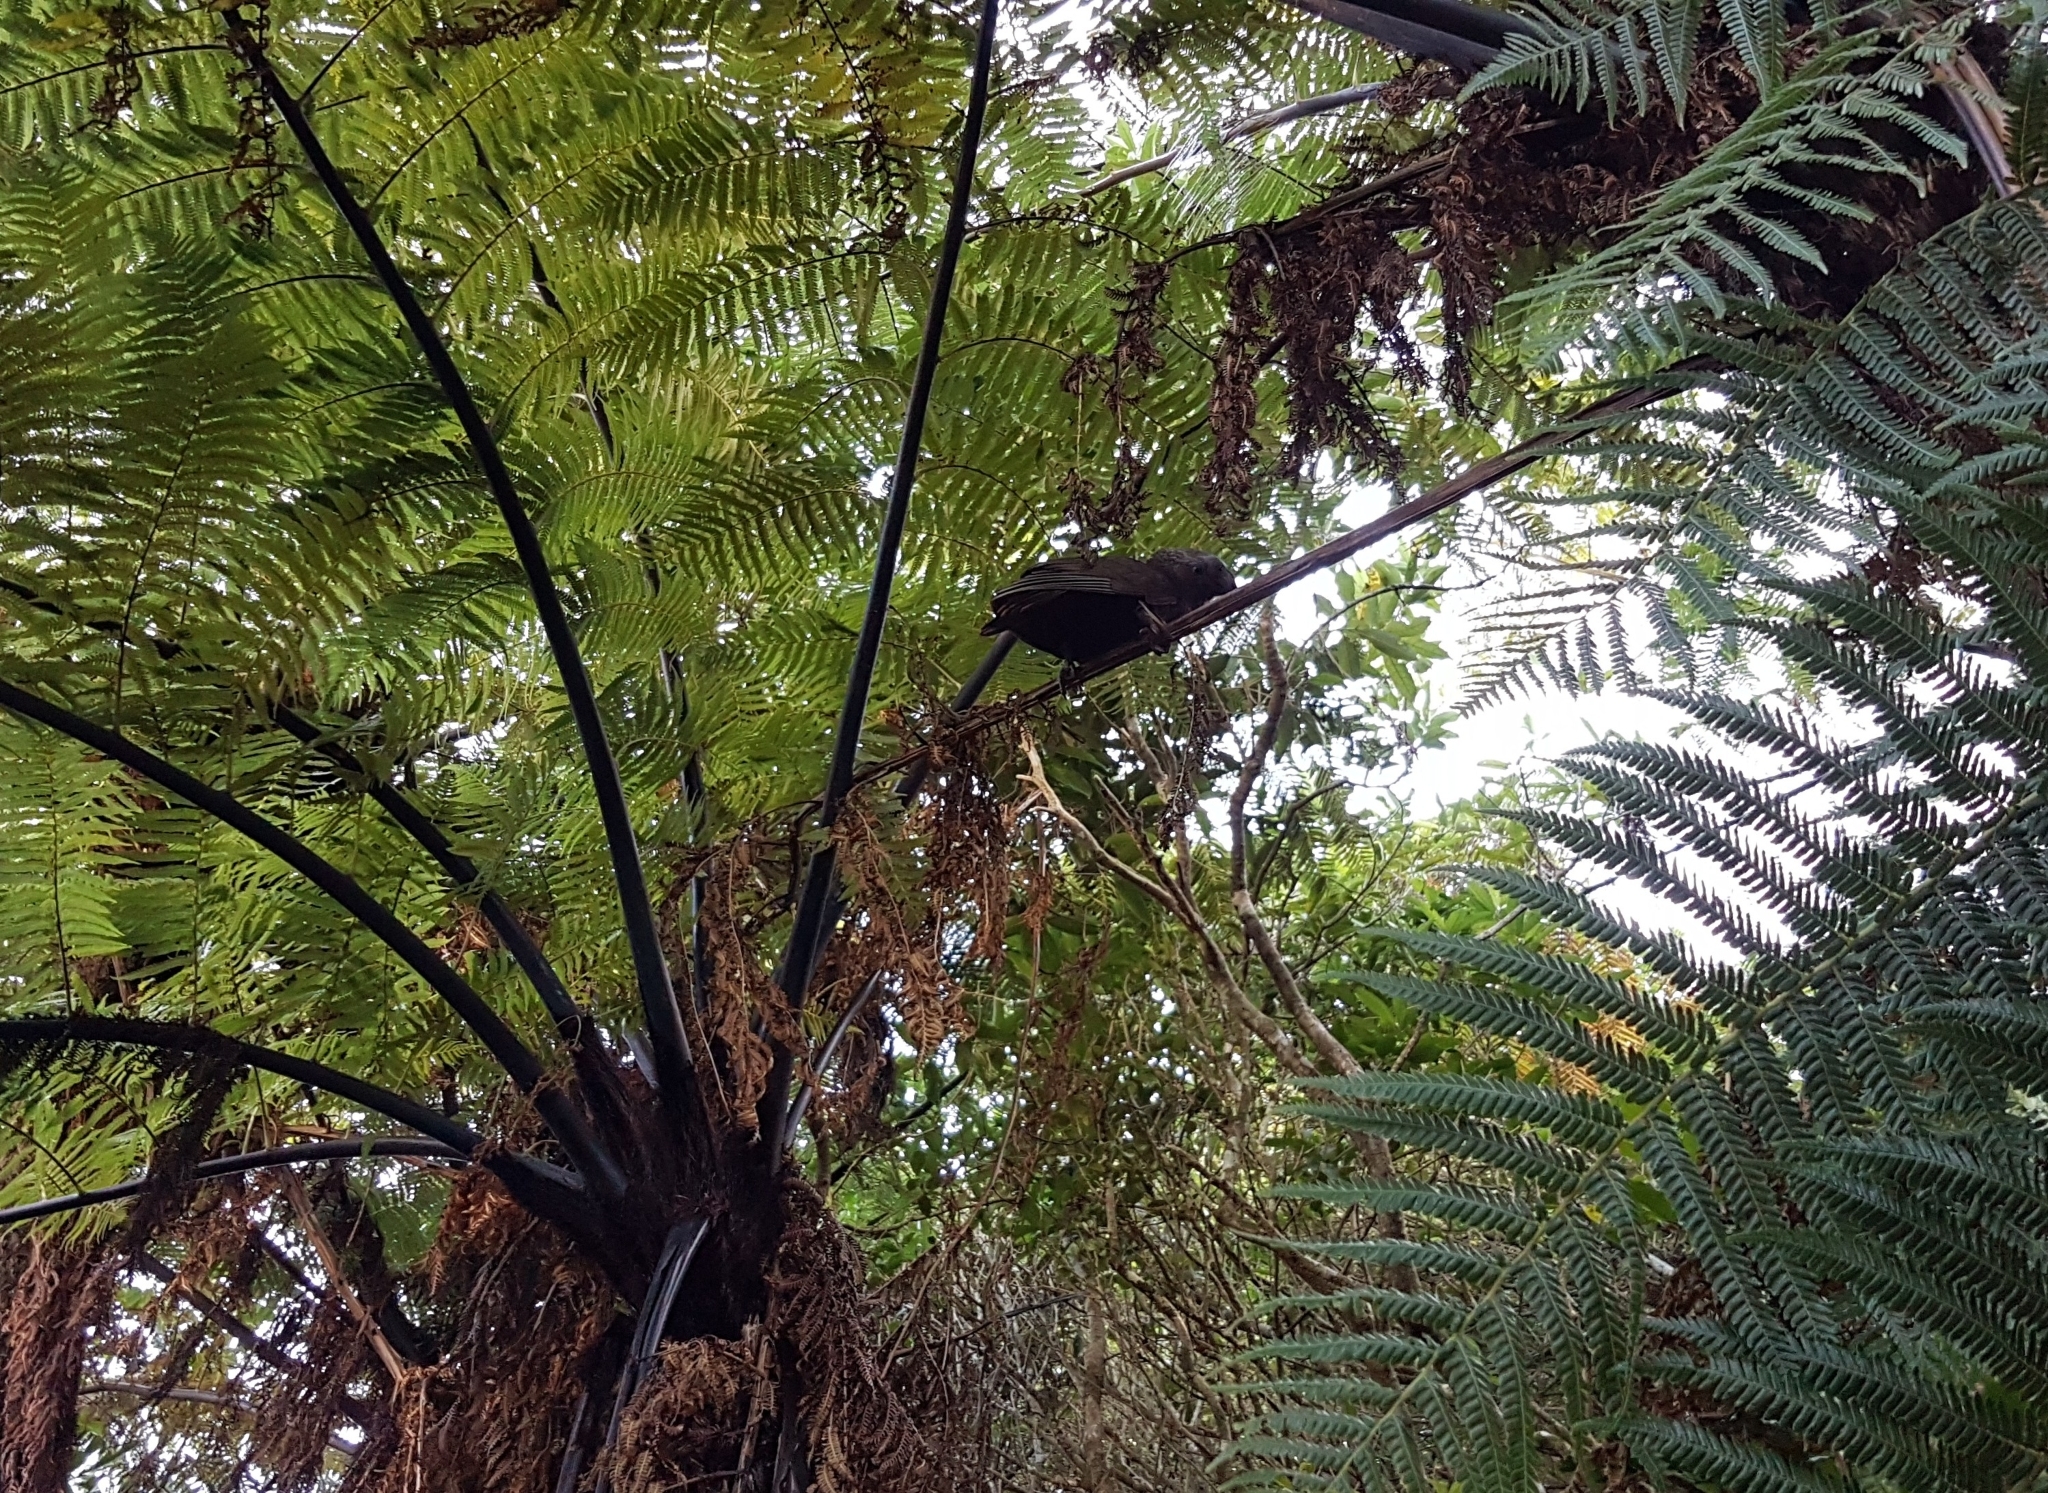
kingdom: Animalia
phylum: Chordata
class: Aves
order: Psittaciformes
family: Psittacidae
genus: Nestor
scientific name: Nestor meridionalis
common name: New zealand kaka
